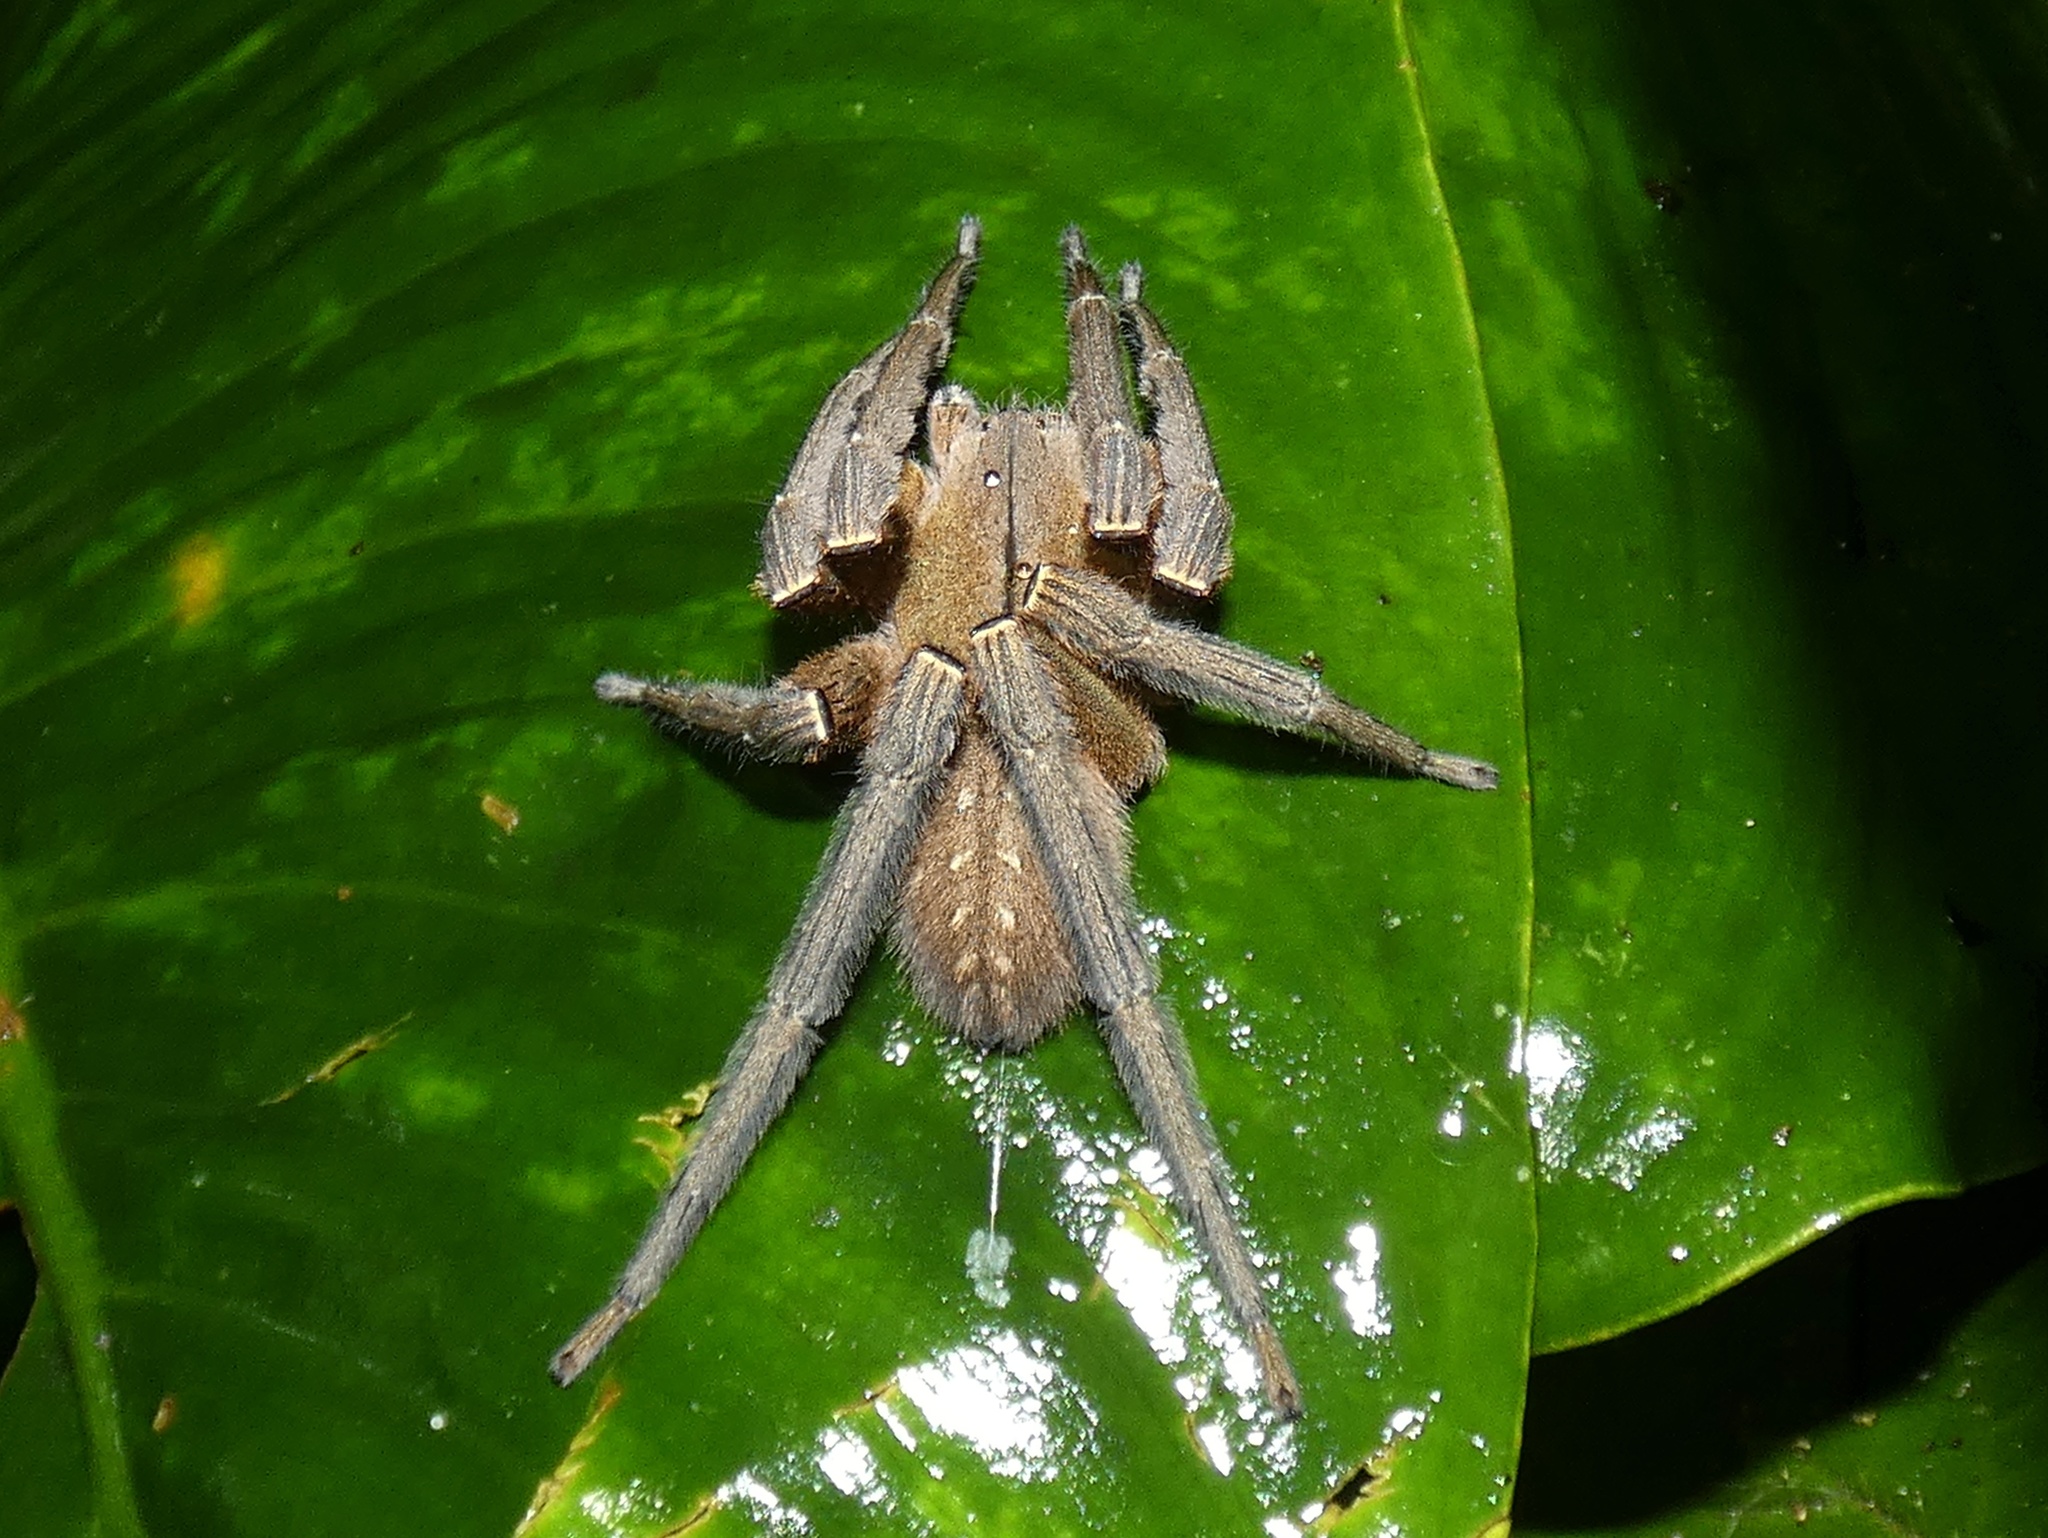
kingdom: Animalia
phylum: Arthropoda
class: Arachnida
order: Araneae
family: Ctenidae
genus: Phoneutria
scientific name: Phoneutria depilata
